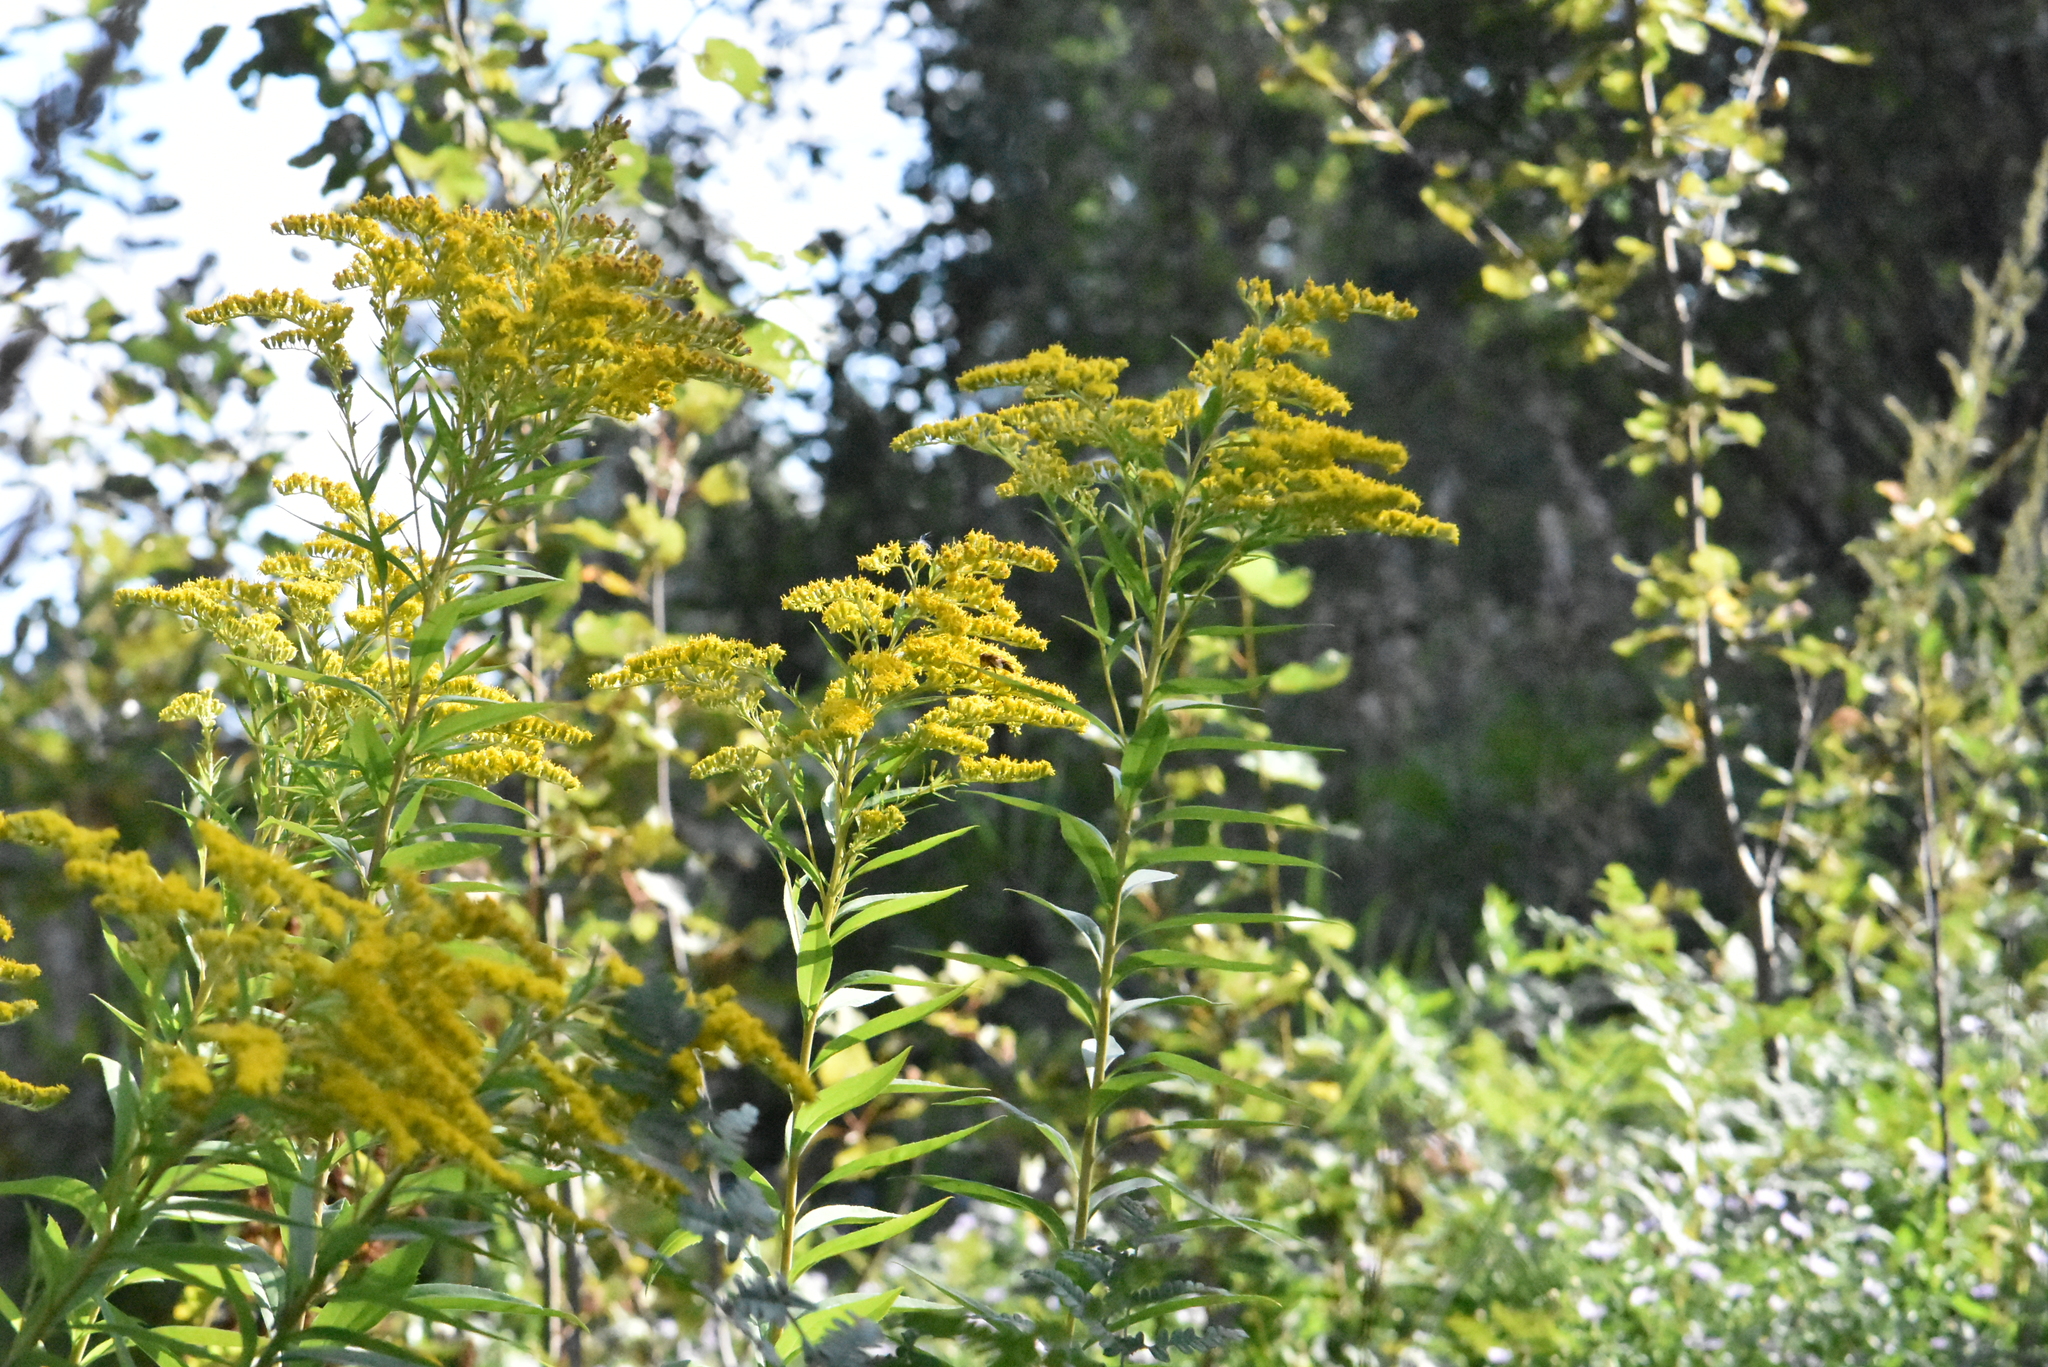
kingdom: Plantae
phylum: Tracheophyta
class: Magnoliopsida
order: Asterales
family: Asteraceae
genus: Solidago
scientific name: Solidago canadensis
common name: Canada goldenrod
